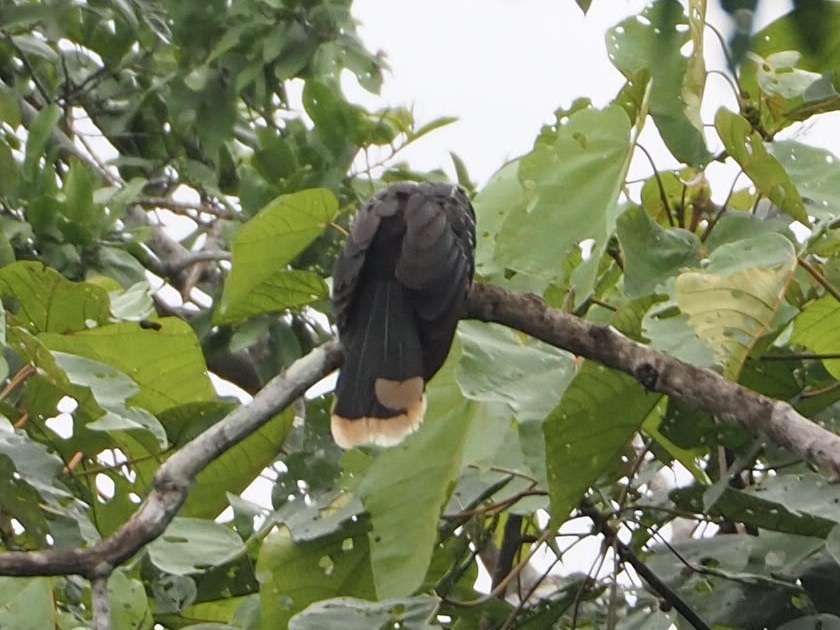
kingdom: Animalia
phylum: Chordata
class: Aves
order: Opisthocomiformes
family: Opisthocomidae
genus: Opisthocomus
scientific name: Opisthocomus hoazin
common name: Hoatzin
